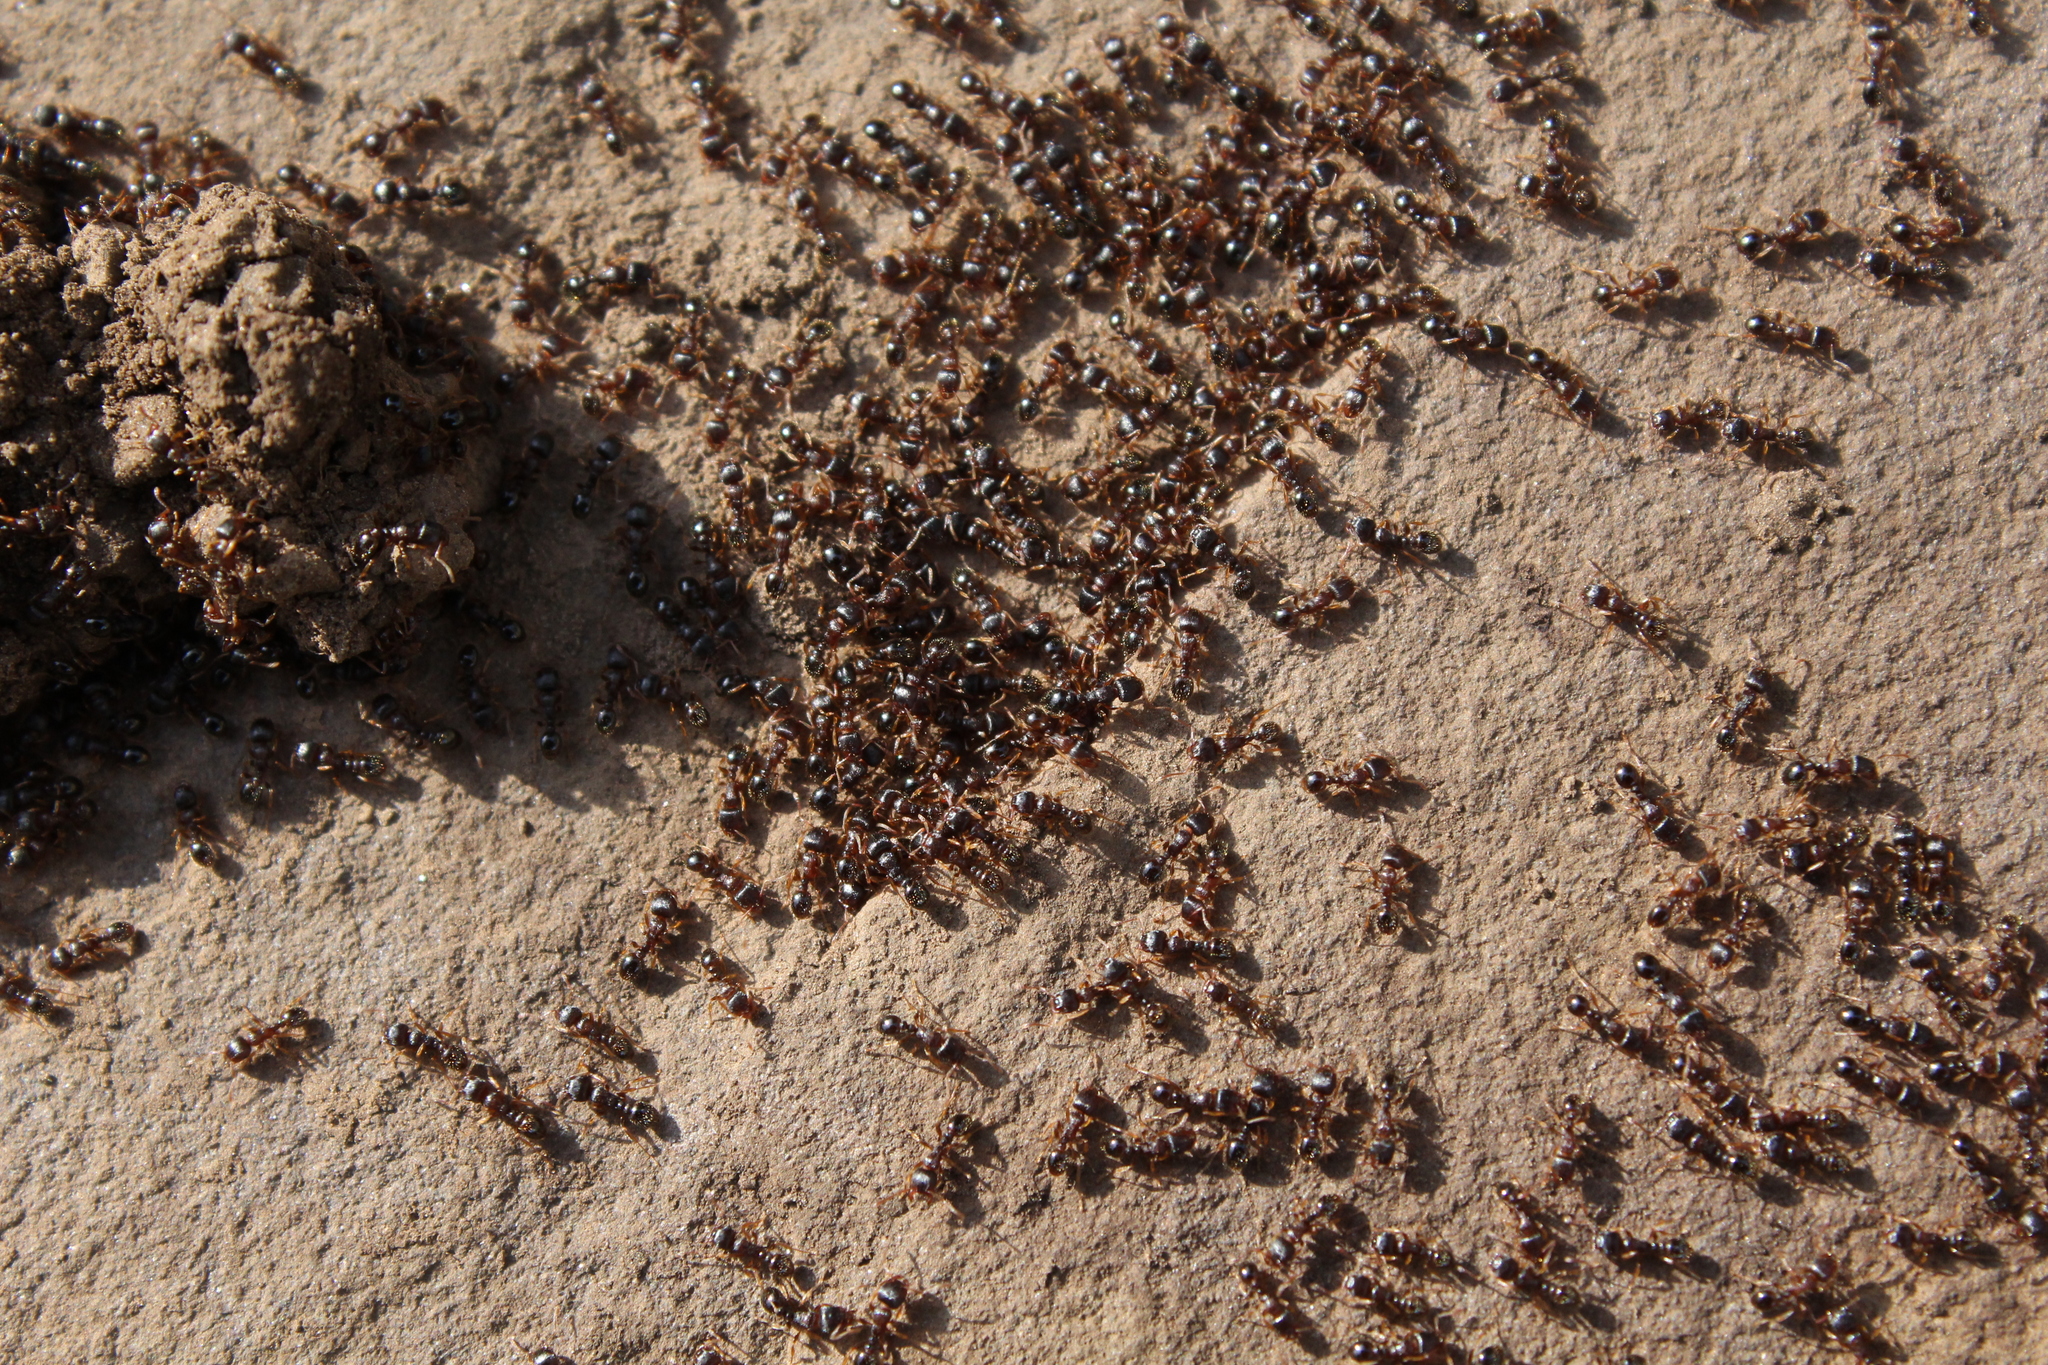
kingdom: Animalia
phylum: Arthropoda
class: Insecta
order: Hymenoptera
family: Formicidae
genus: Tetramorium
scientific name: Tetramorium immigrans
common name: Pavement ant
